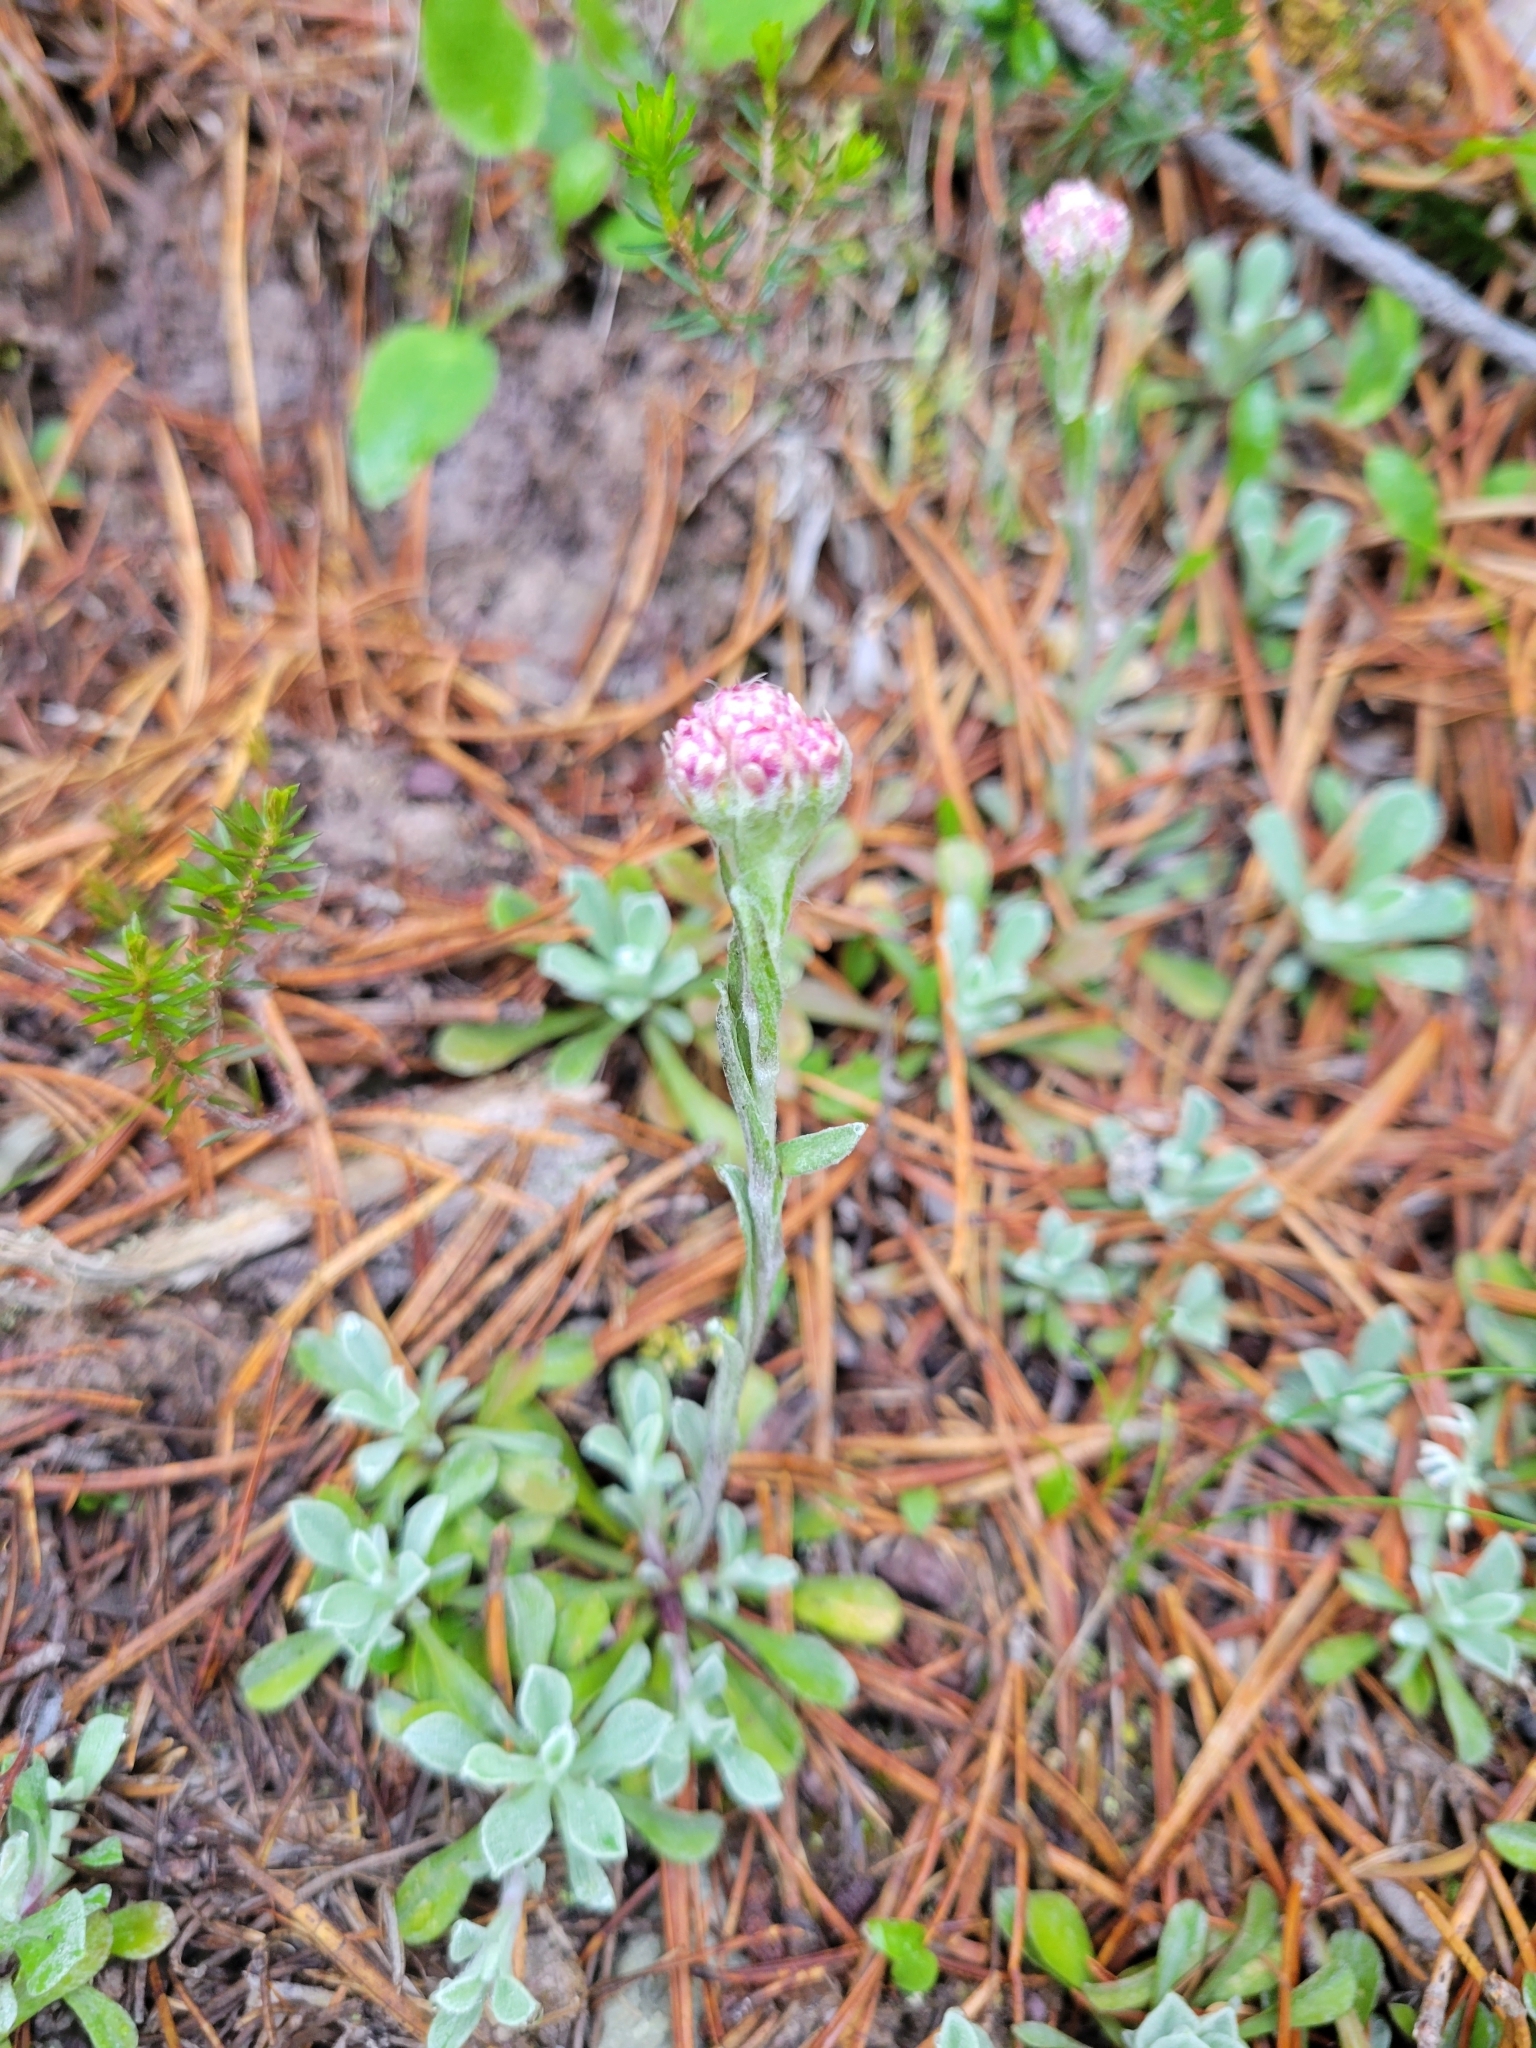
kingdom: Plantae
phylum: Tracheophyta
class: Magnoliopsida
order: Asterales
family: Asteraceae
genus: Antennaria
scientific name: Antennaria dioica
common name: Mountain everlasting
